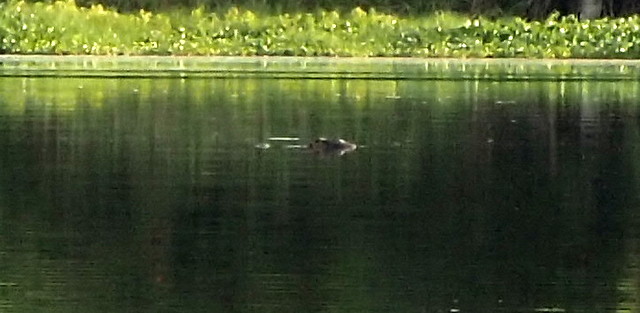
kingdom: Animalia
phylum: Chordata
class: Crocodylia
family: Alligatoridae
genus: Alligator
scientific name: Alligator mississippiensis
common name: American alligator
